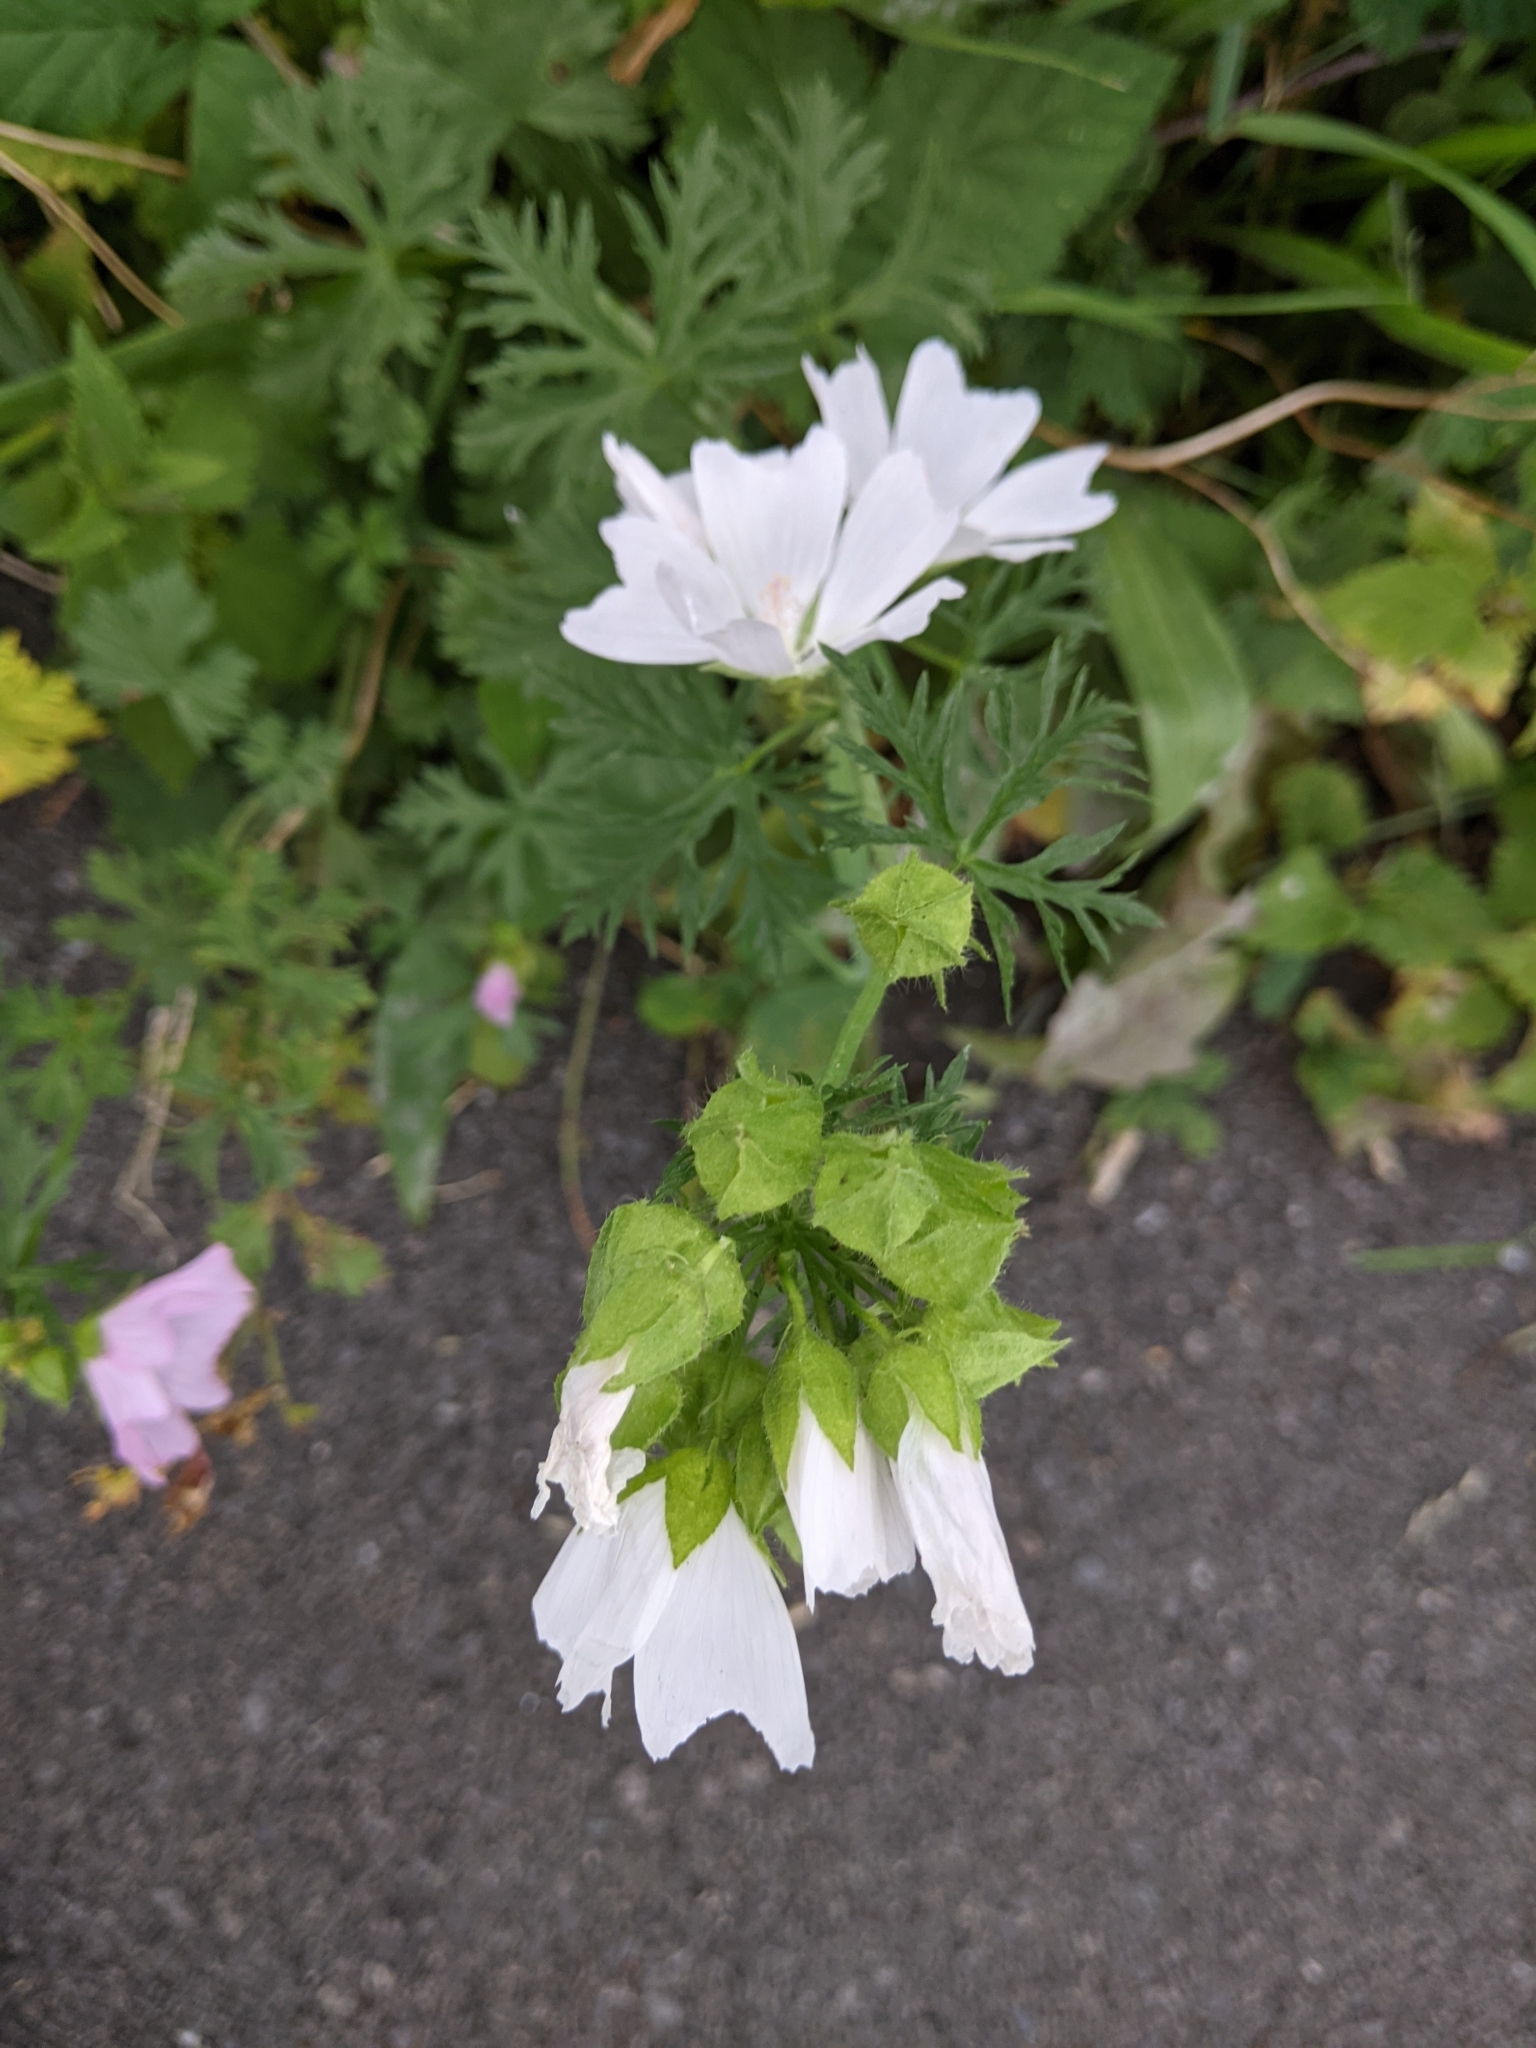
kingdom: Plantae
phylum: Tracheophyta
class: Magnoliopsida
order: Malvales
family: Malvaceae
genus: Malva
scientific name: Malva moschata
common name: Musk mallow
